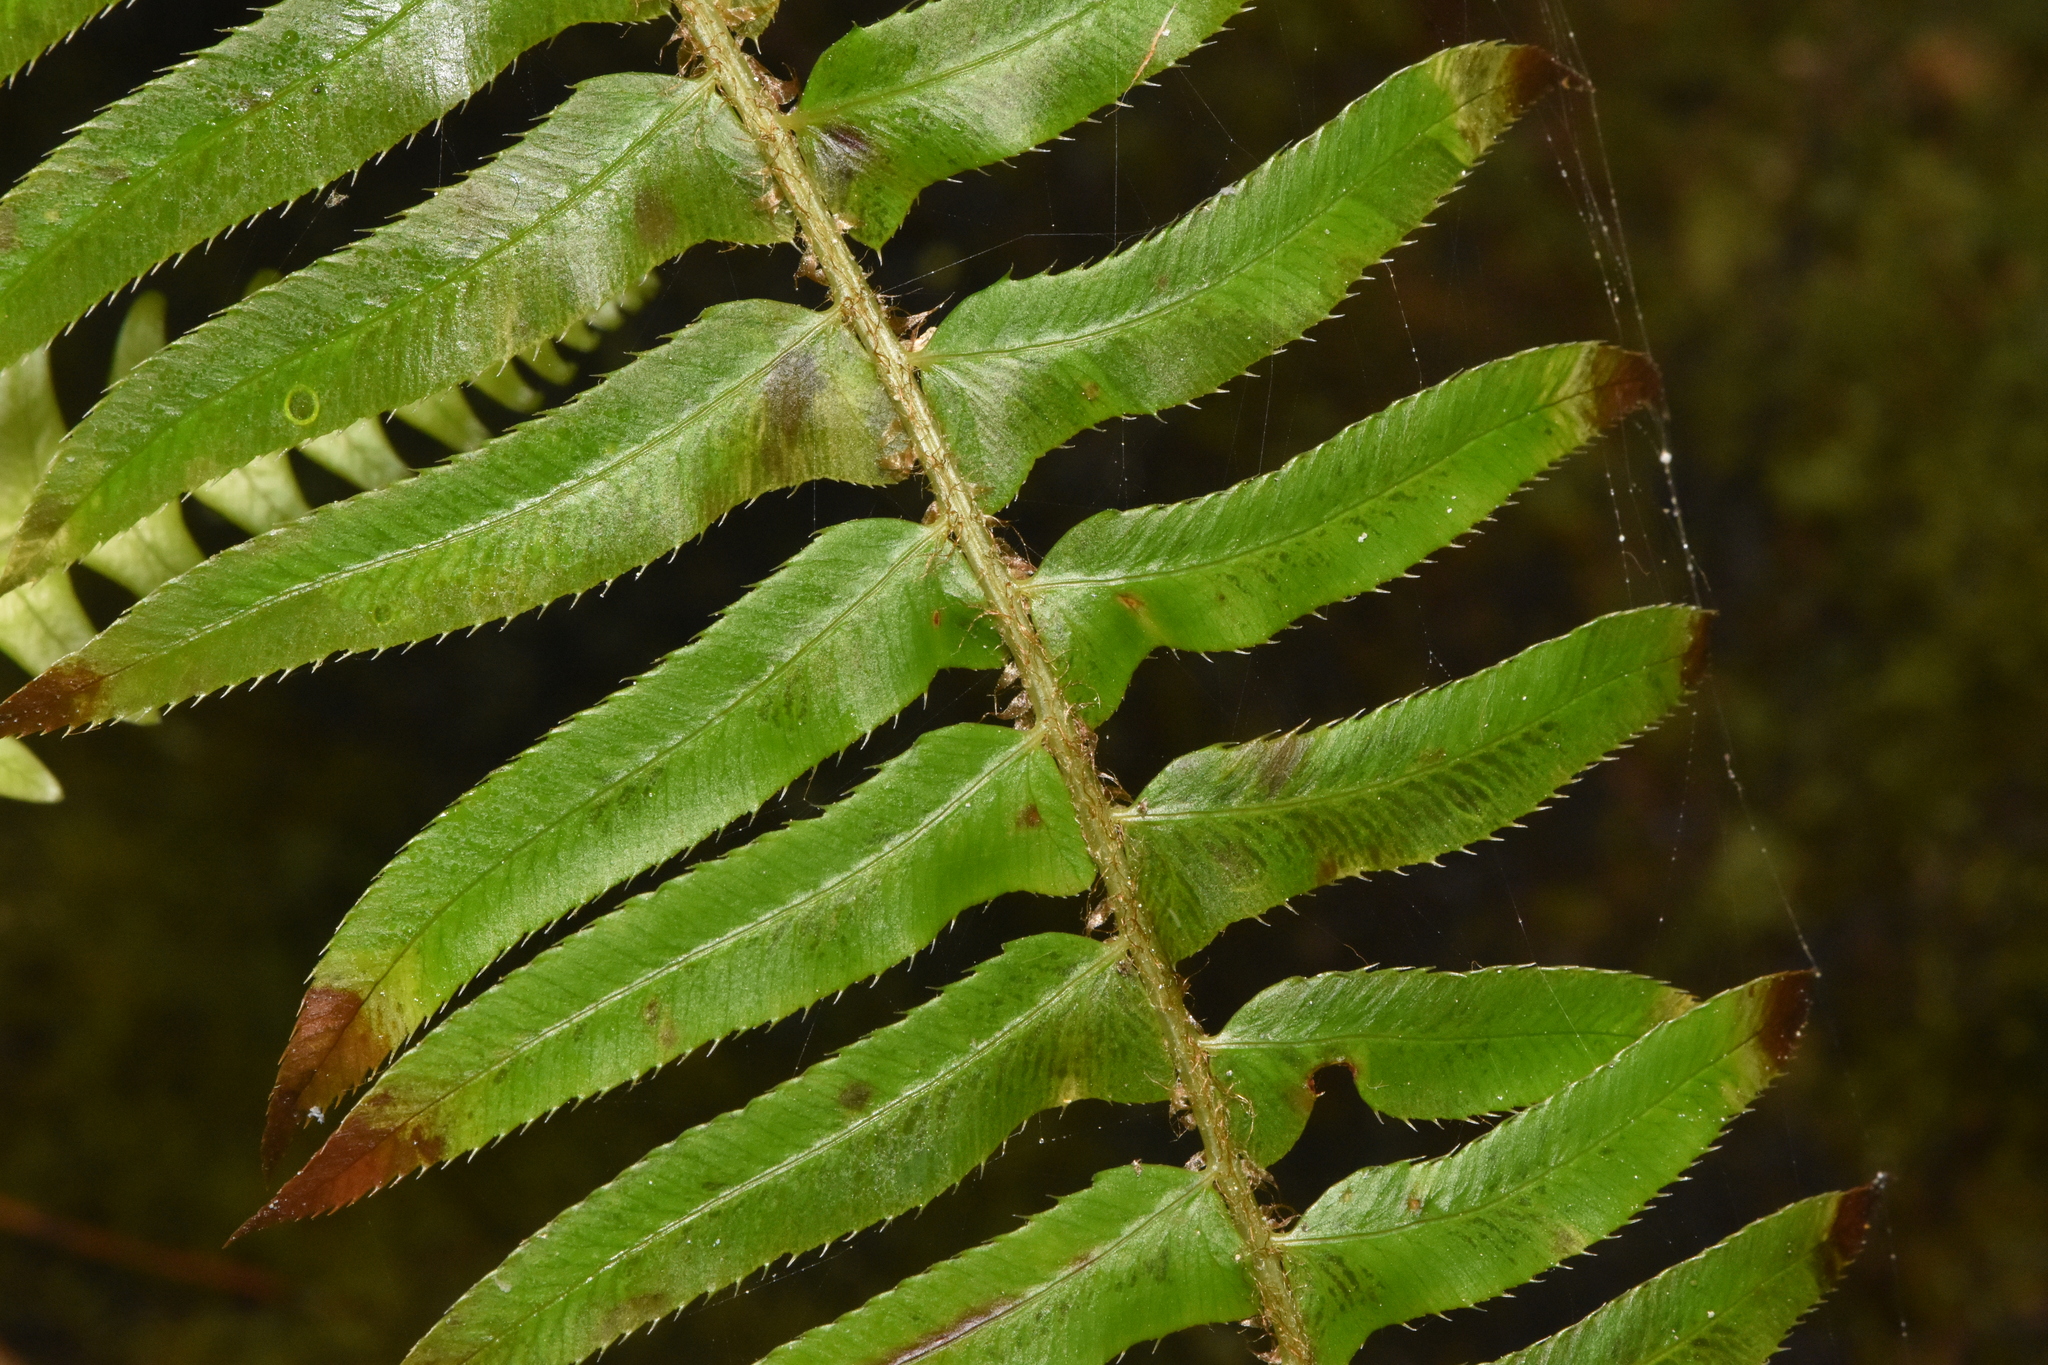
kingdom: Plantae
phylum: Tracheophyta
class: Polypodiopsida
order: Polypodiales
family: Dryopteridaceae
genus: Polystichum
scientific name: Polystichum munitum
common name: Western sword-fern
